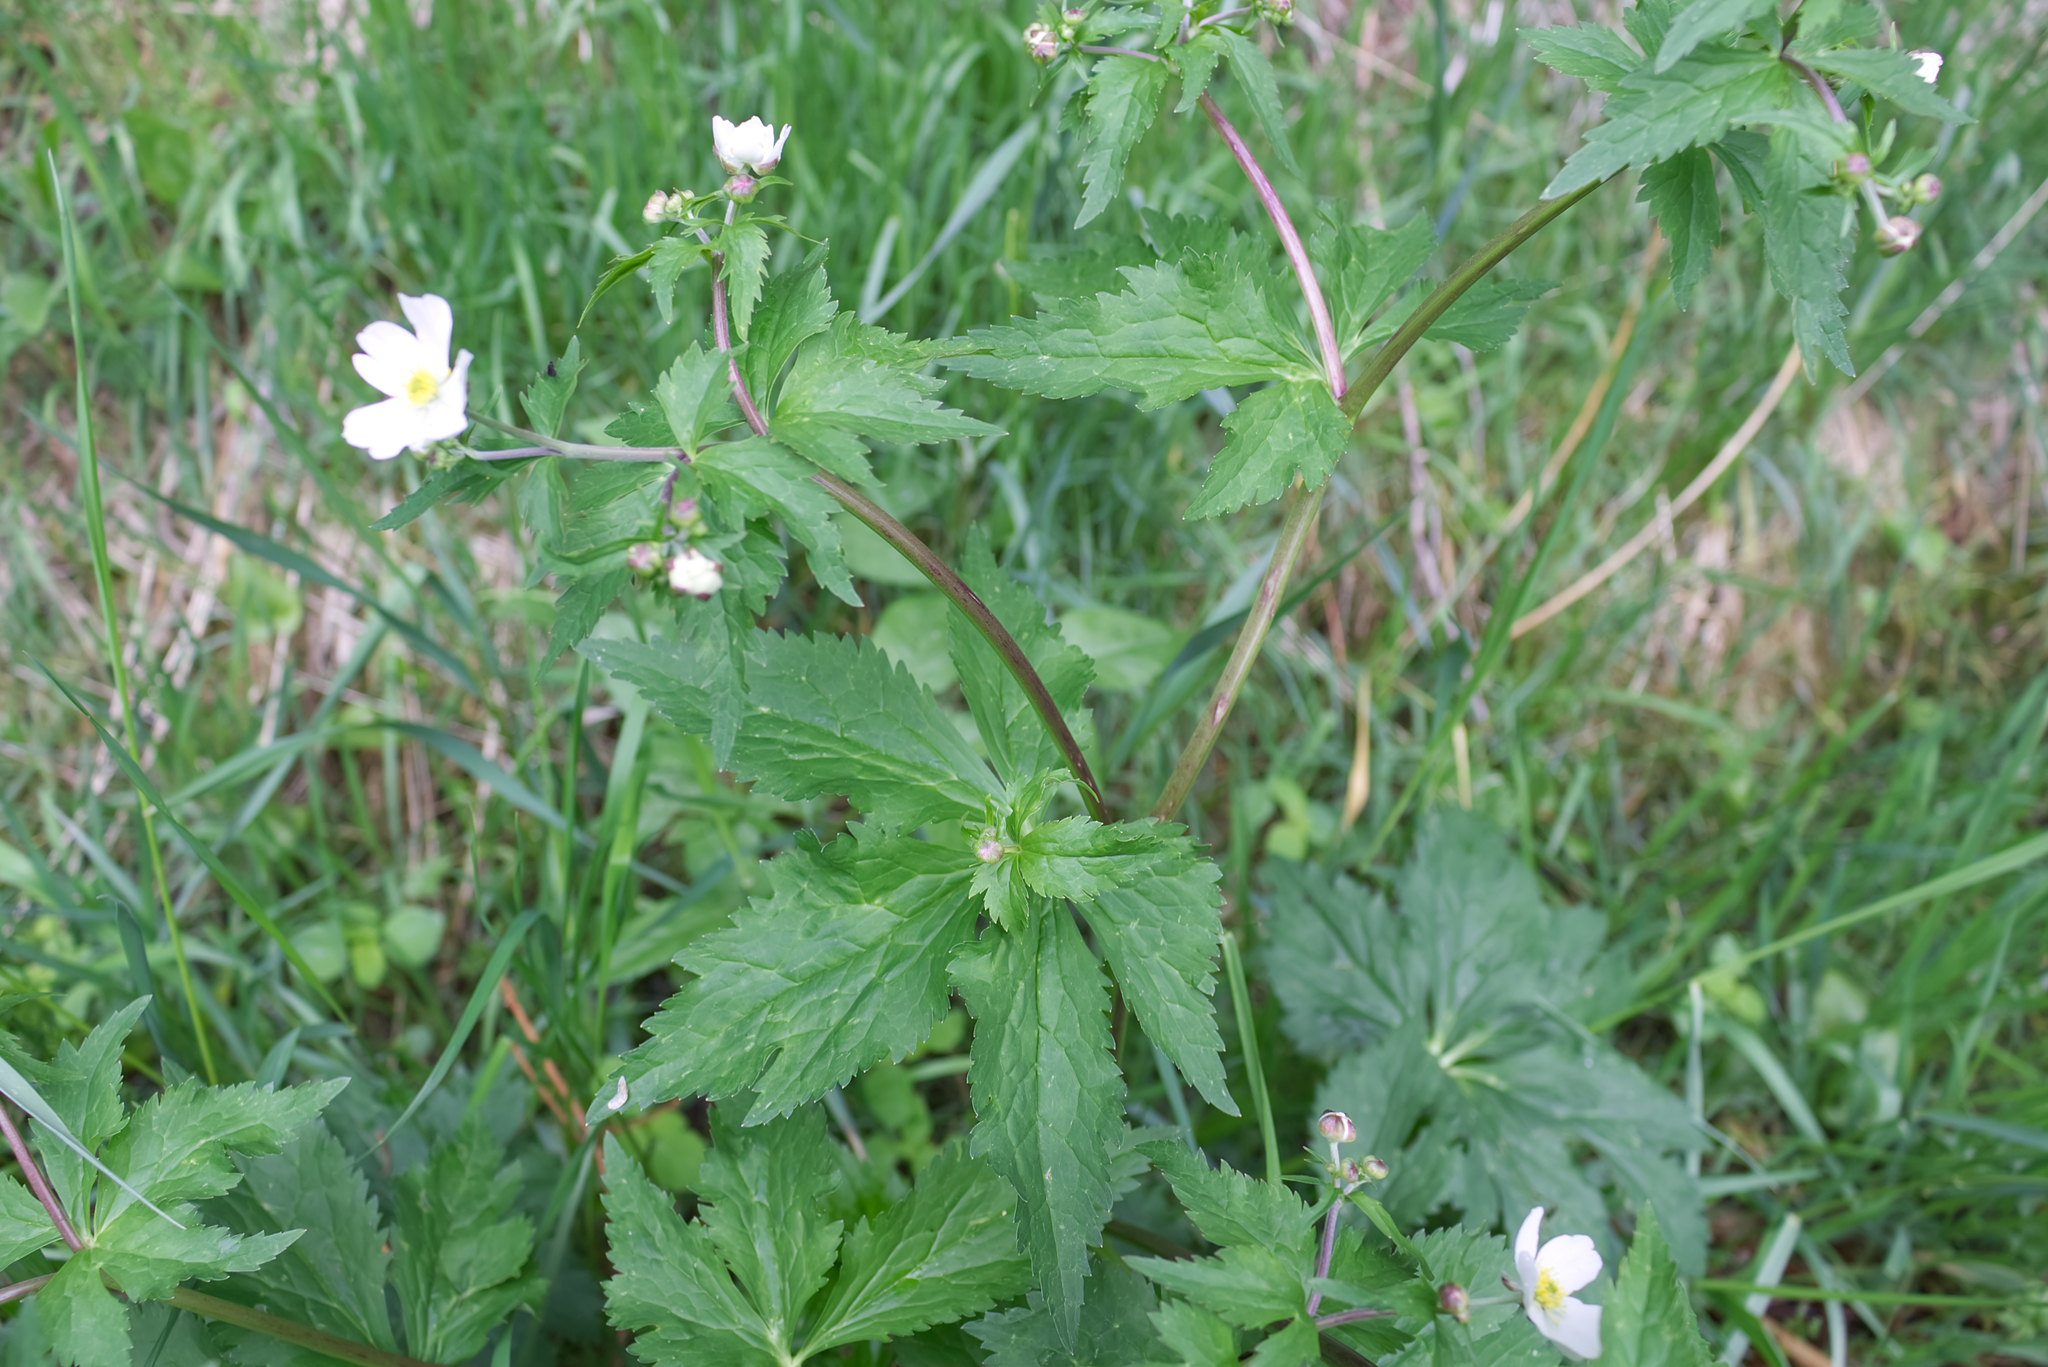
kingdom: Plantae
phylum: Tracheophyta
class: Magnoliopsida
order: Ranunculales
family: Ranunculaceae
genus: Ranunculus
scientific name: Ranunculus aconitifolius
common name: Aconite-leaved buttercup
